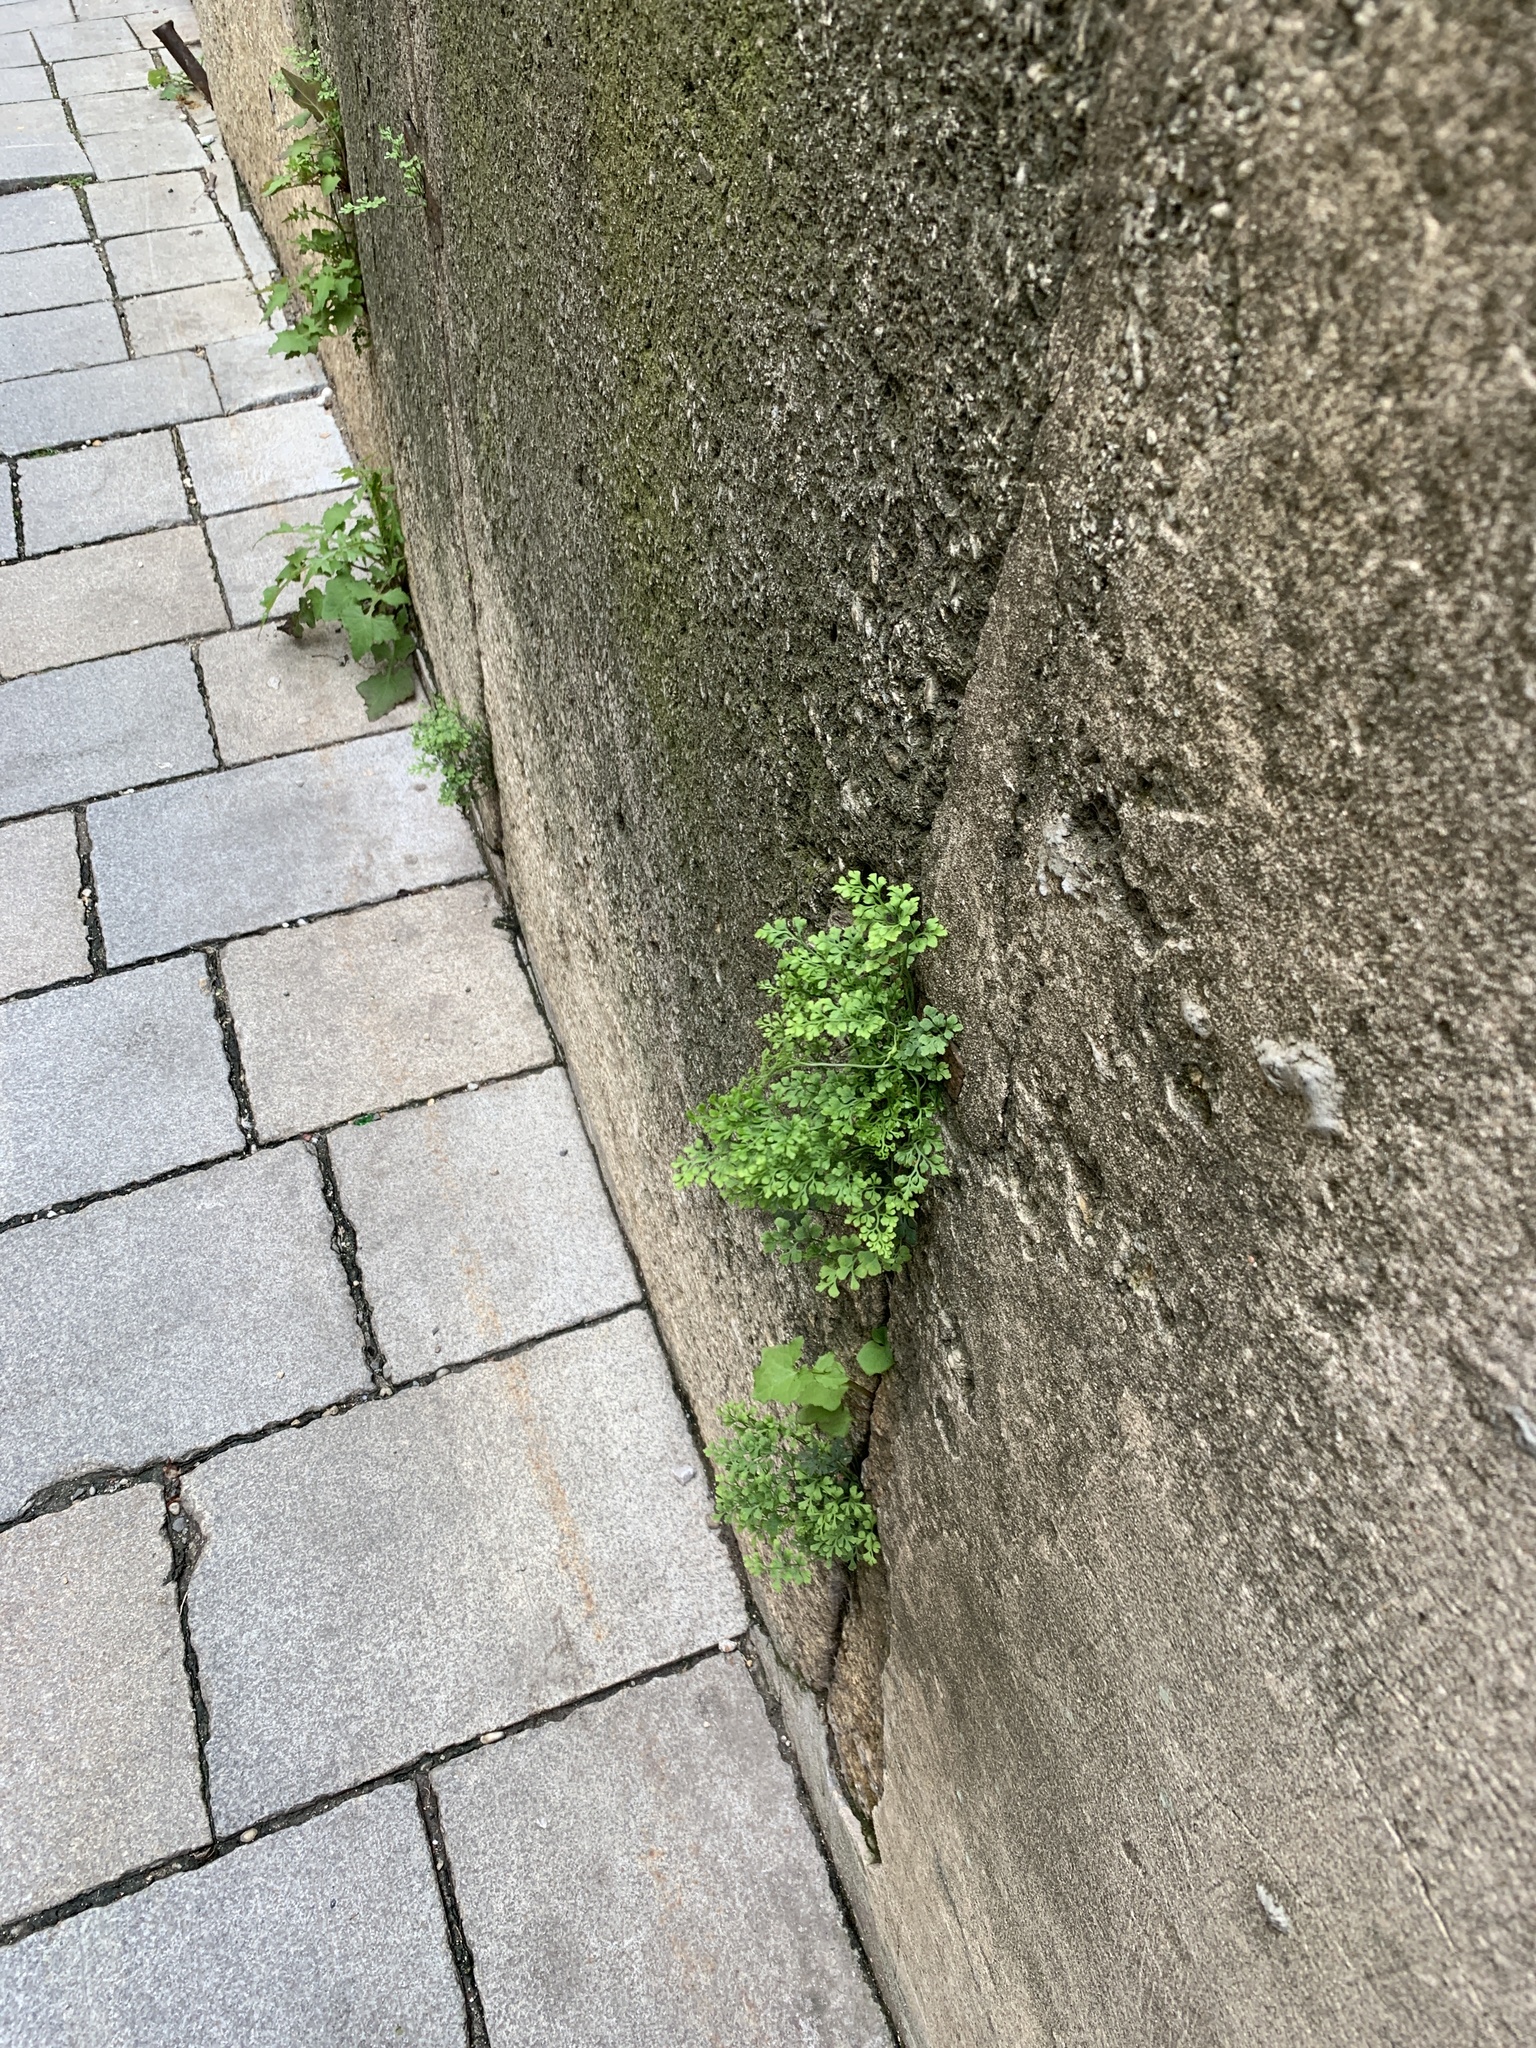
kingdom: Plantae
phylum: Tracheophyta
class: Polypodiopsida
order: Polypodiales
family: Aspleniaceae
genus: Asplenium
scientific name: Asplenium ruta-muraria
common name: Wall-rue
